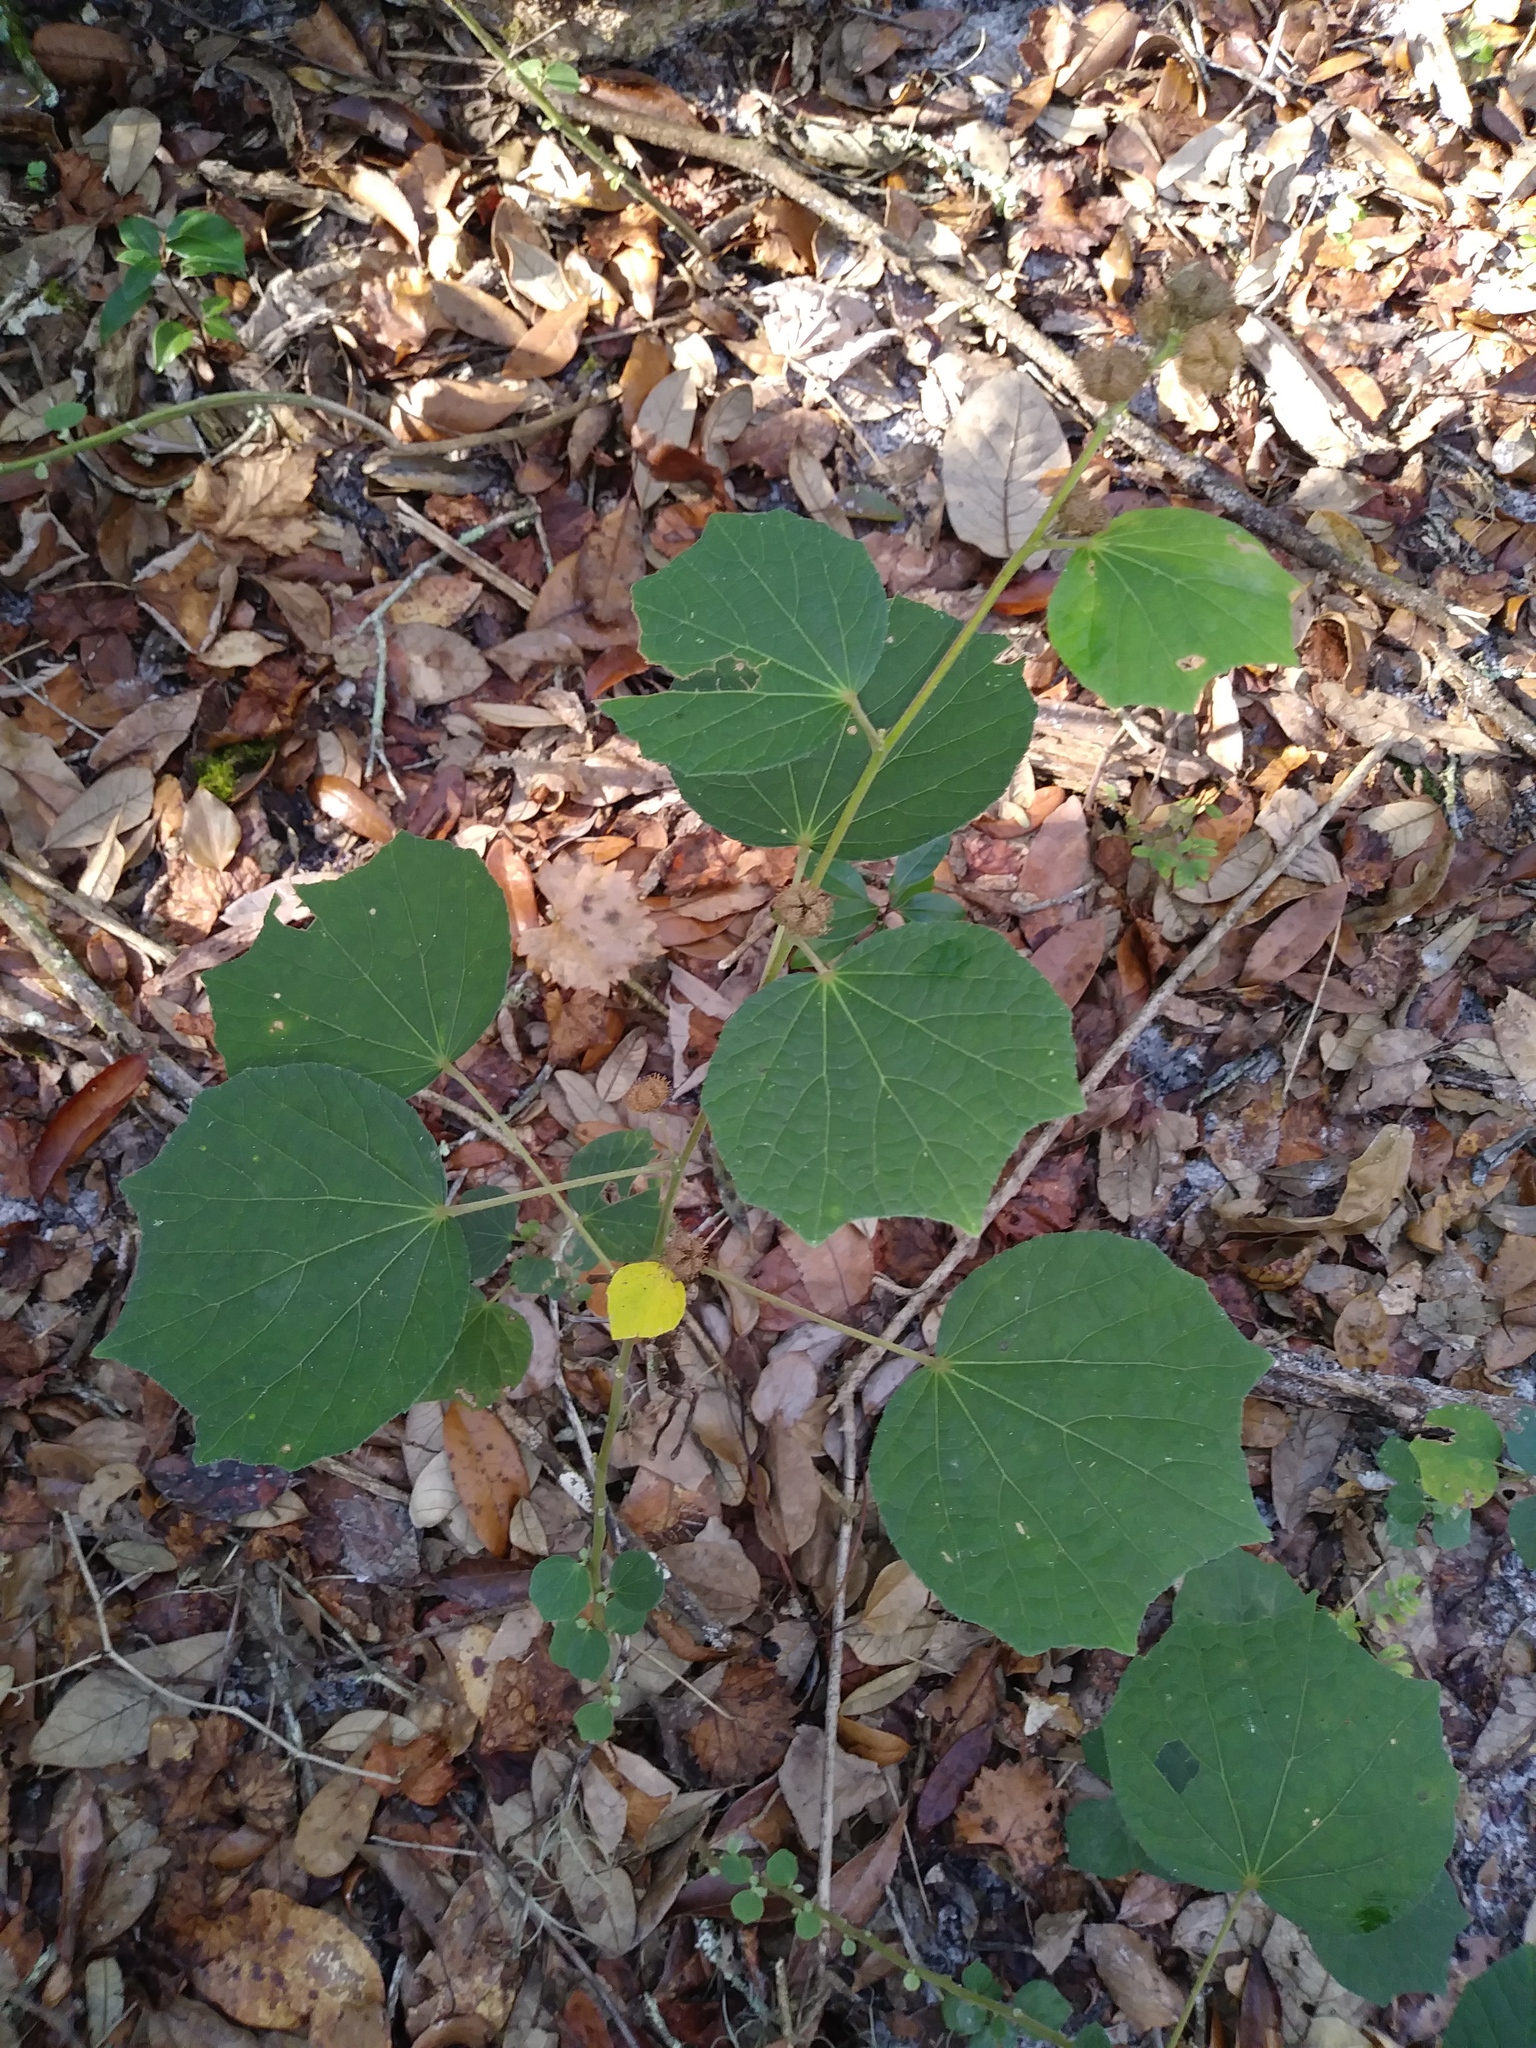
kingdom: Plantae
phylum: Tracheophyta
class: Magnoliopsida
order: Malvales
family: Malvaceae
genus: Urena
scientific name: Urena lobata
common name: Caesarweed
